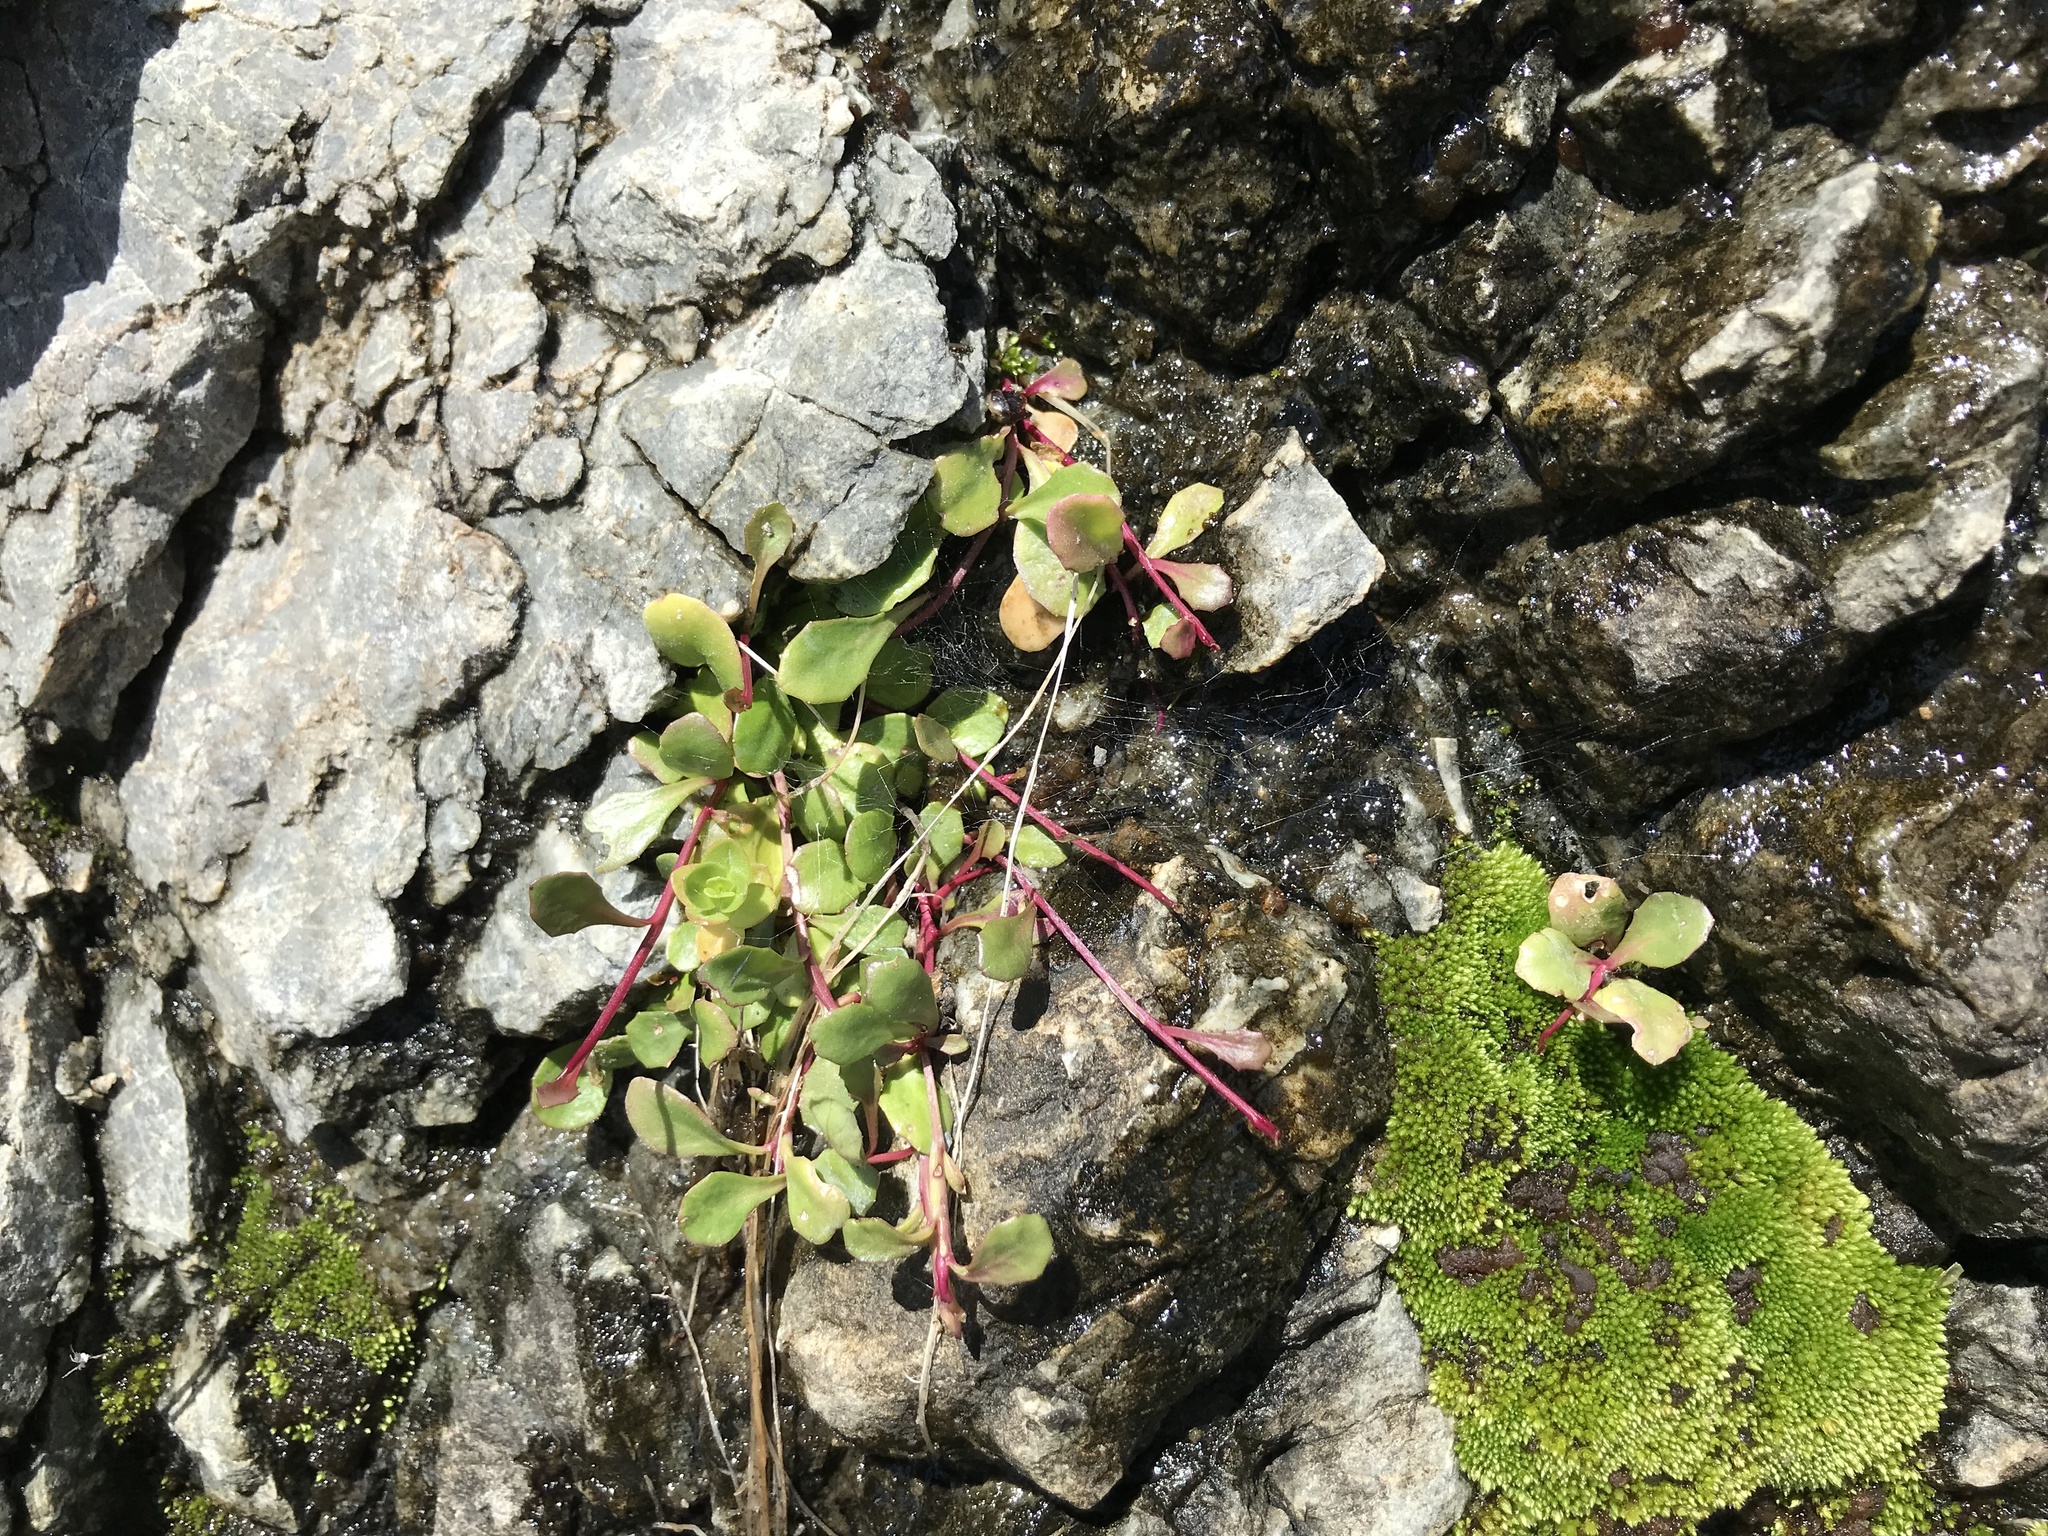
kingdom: Plantae
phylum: Tracheophyta
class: Magnoliopsida
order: Asterales
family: Campanulaceae
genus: Lobelia
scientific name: Lobelia anceps
